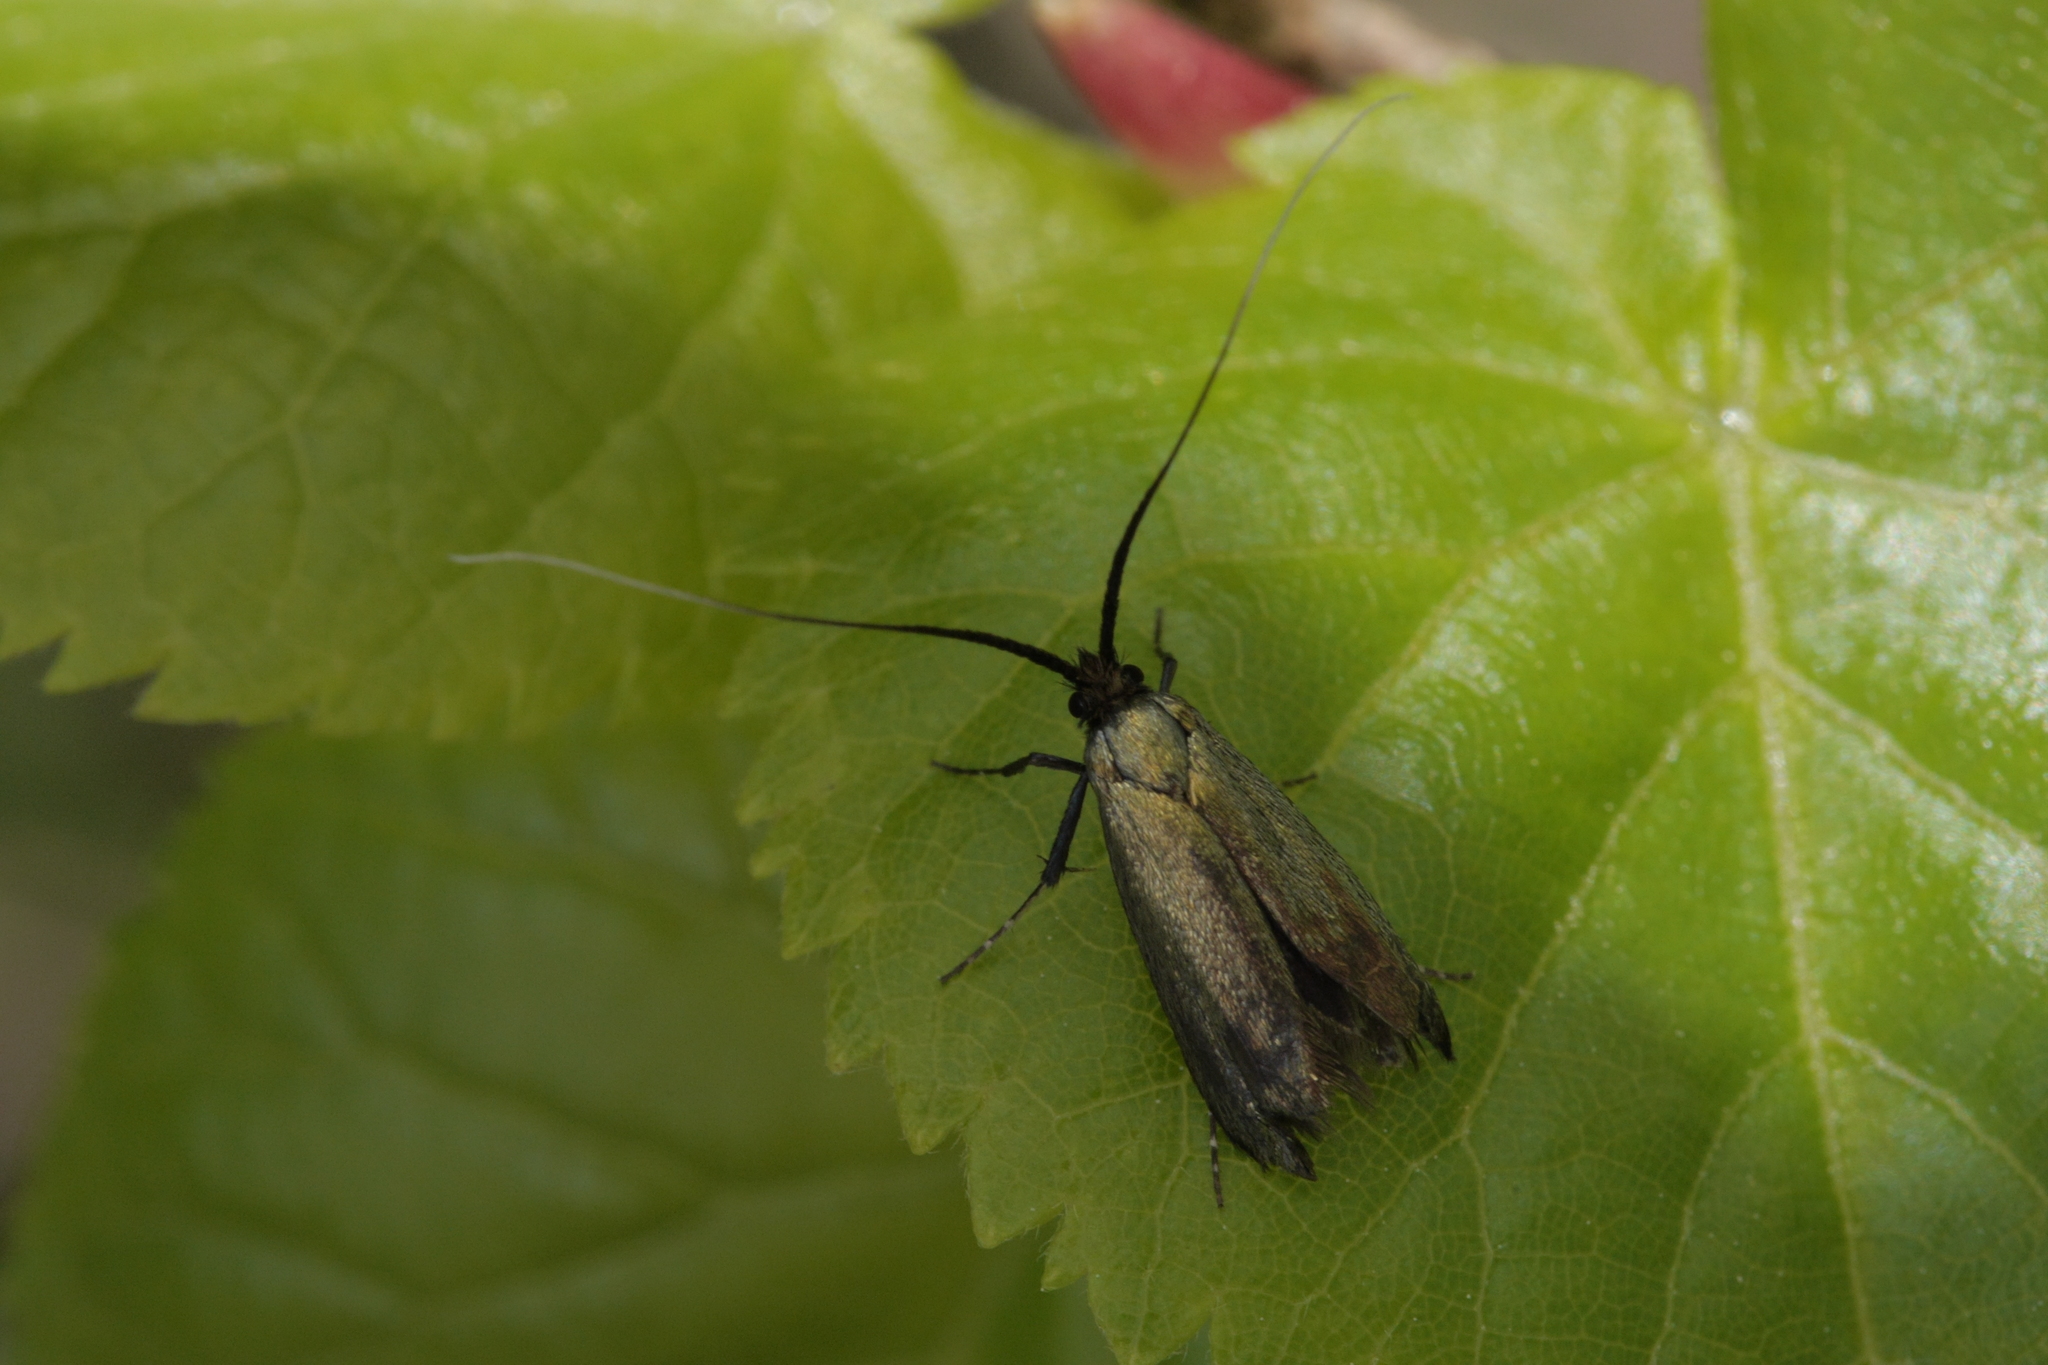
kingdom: Animalia
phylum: Arthropoda
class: Insecta
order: Lepidoptera
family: Adelidae
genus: Adela
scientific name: Adela viridella
